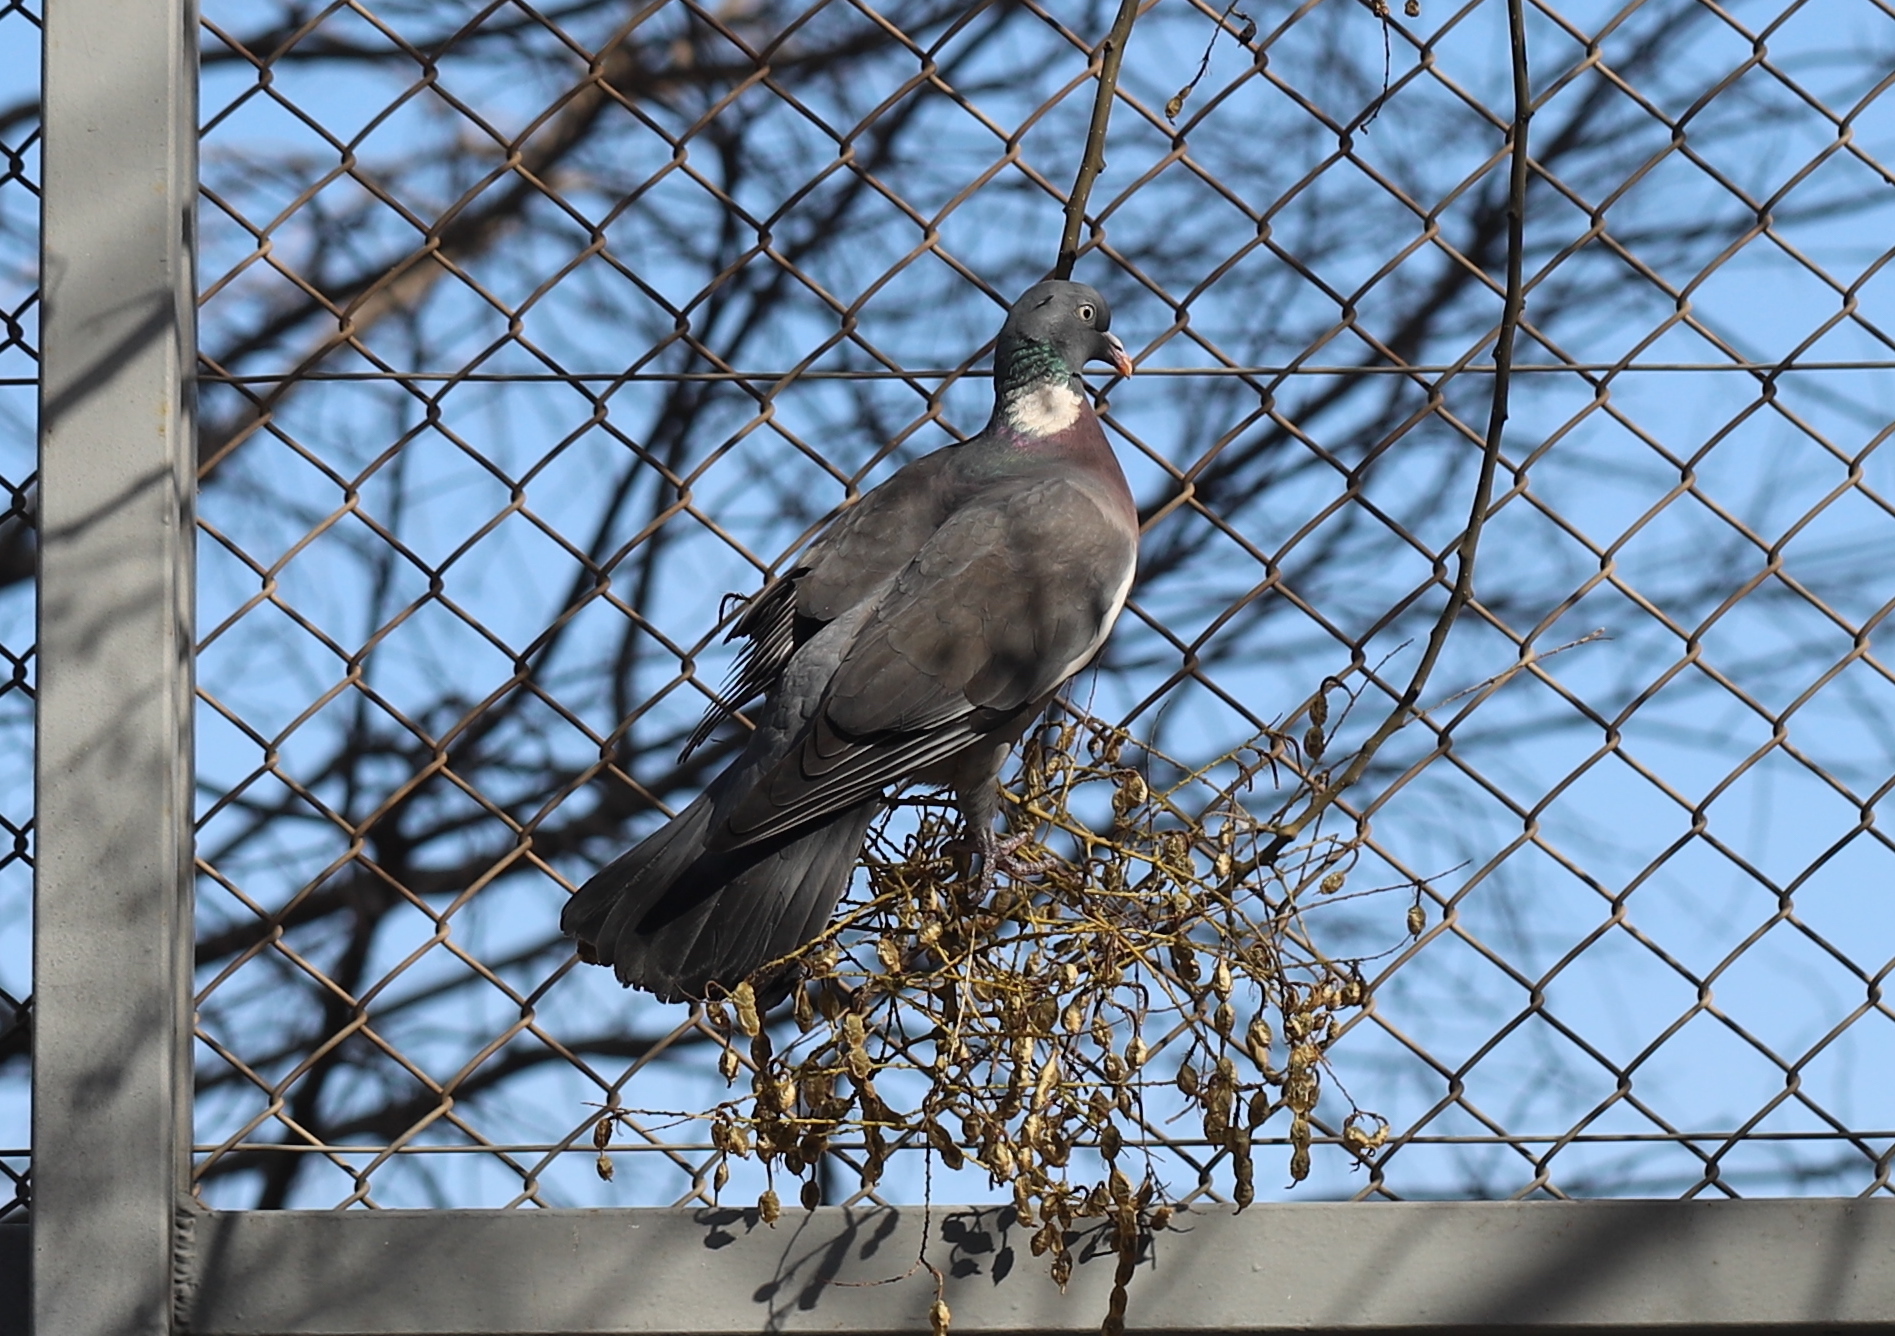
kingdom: Animalia
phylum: Chordata
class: Aves
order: Columbiformes
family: Columbidae
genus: Columba
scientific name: Columba palumbus
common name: Common wood pigeon
